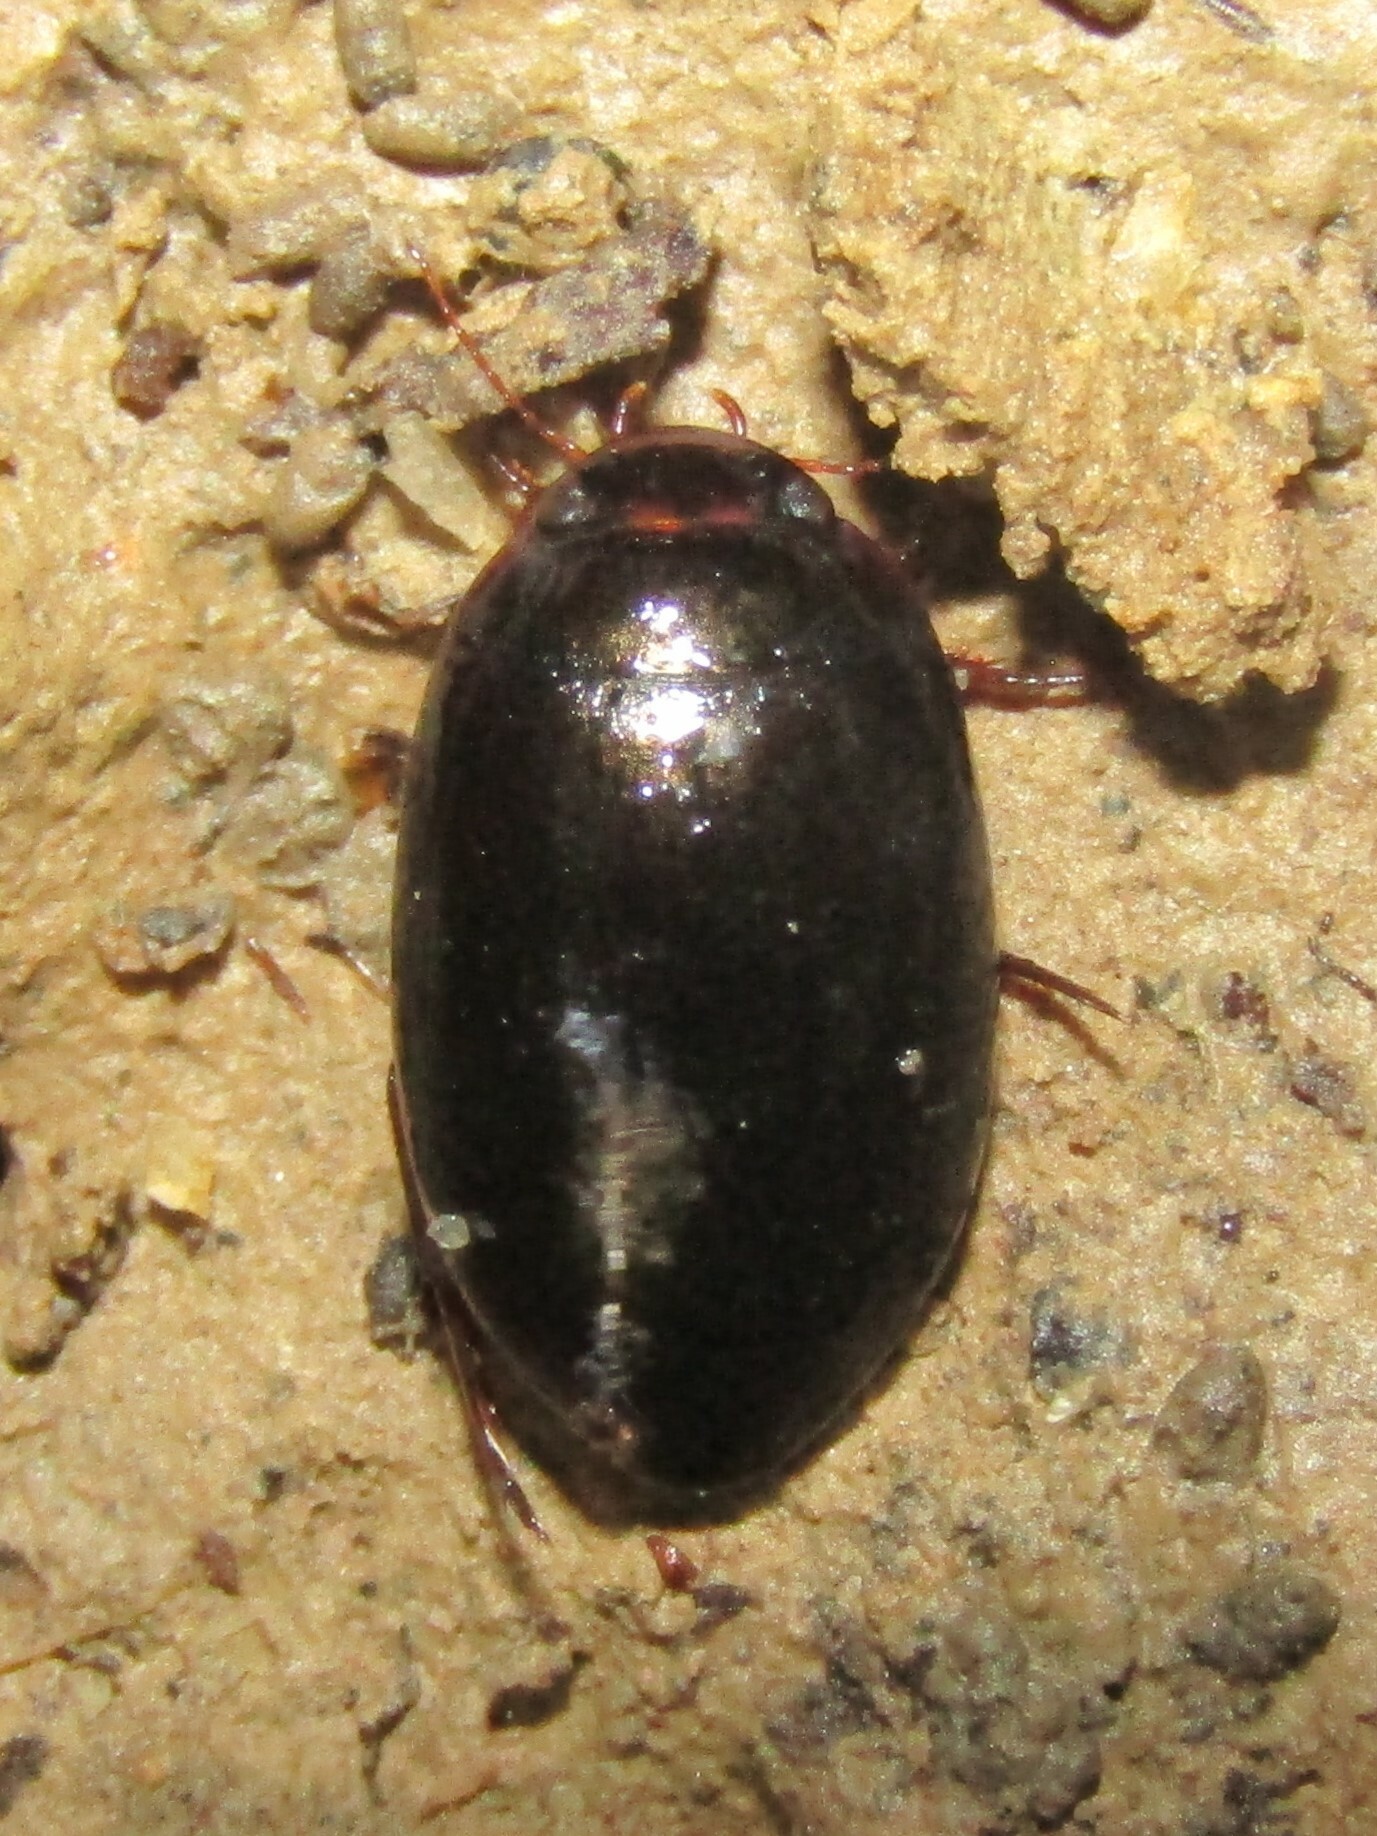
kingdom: Animalia
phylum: Arthropoda
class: Insecta
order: Coleoptera
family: Dytiscidae
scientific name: Dytiscidae
